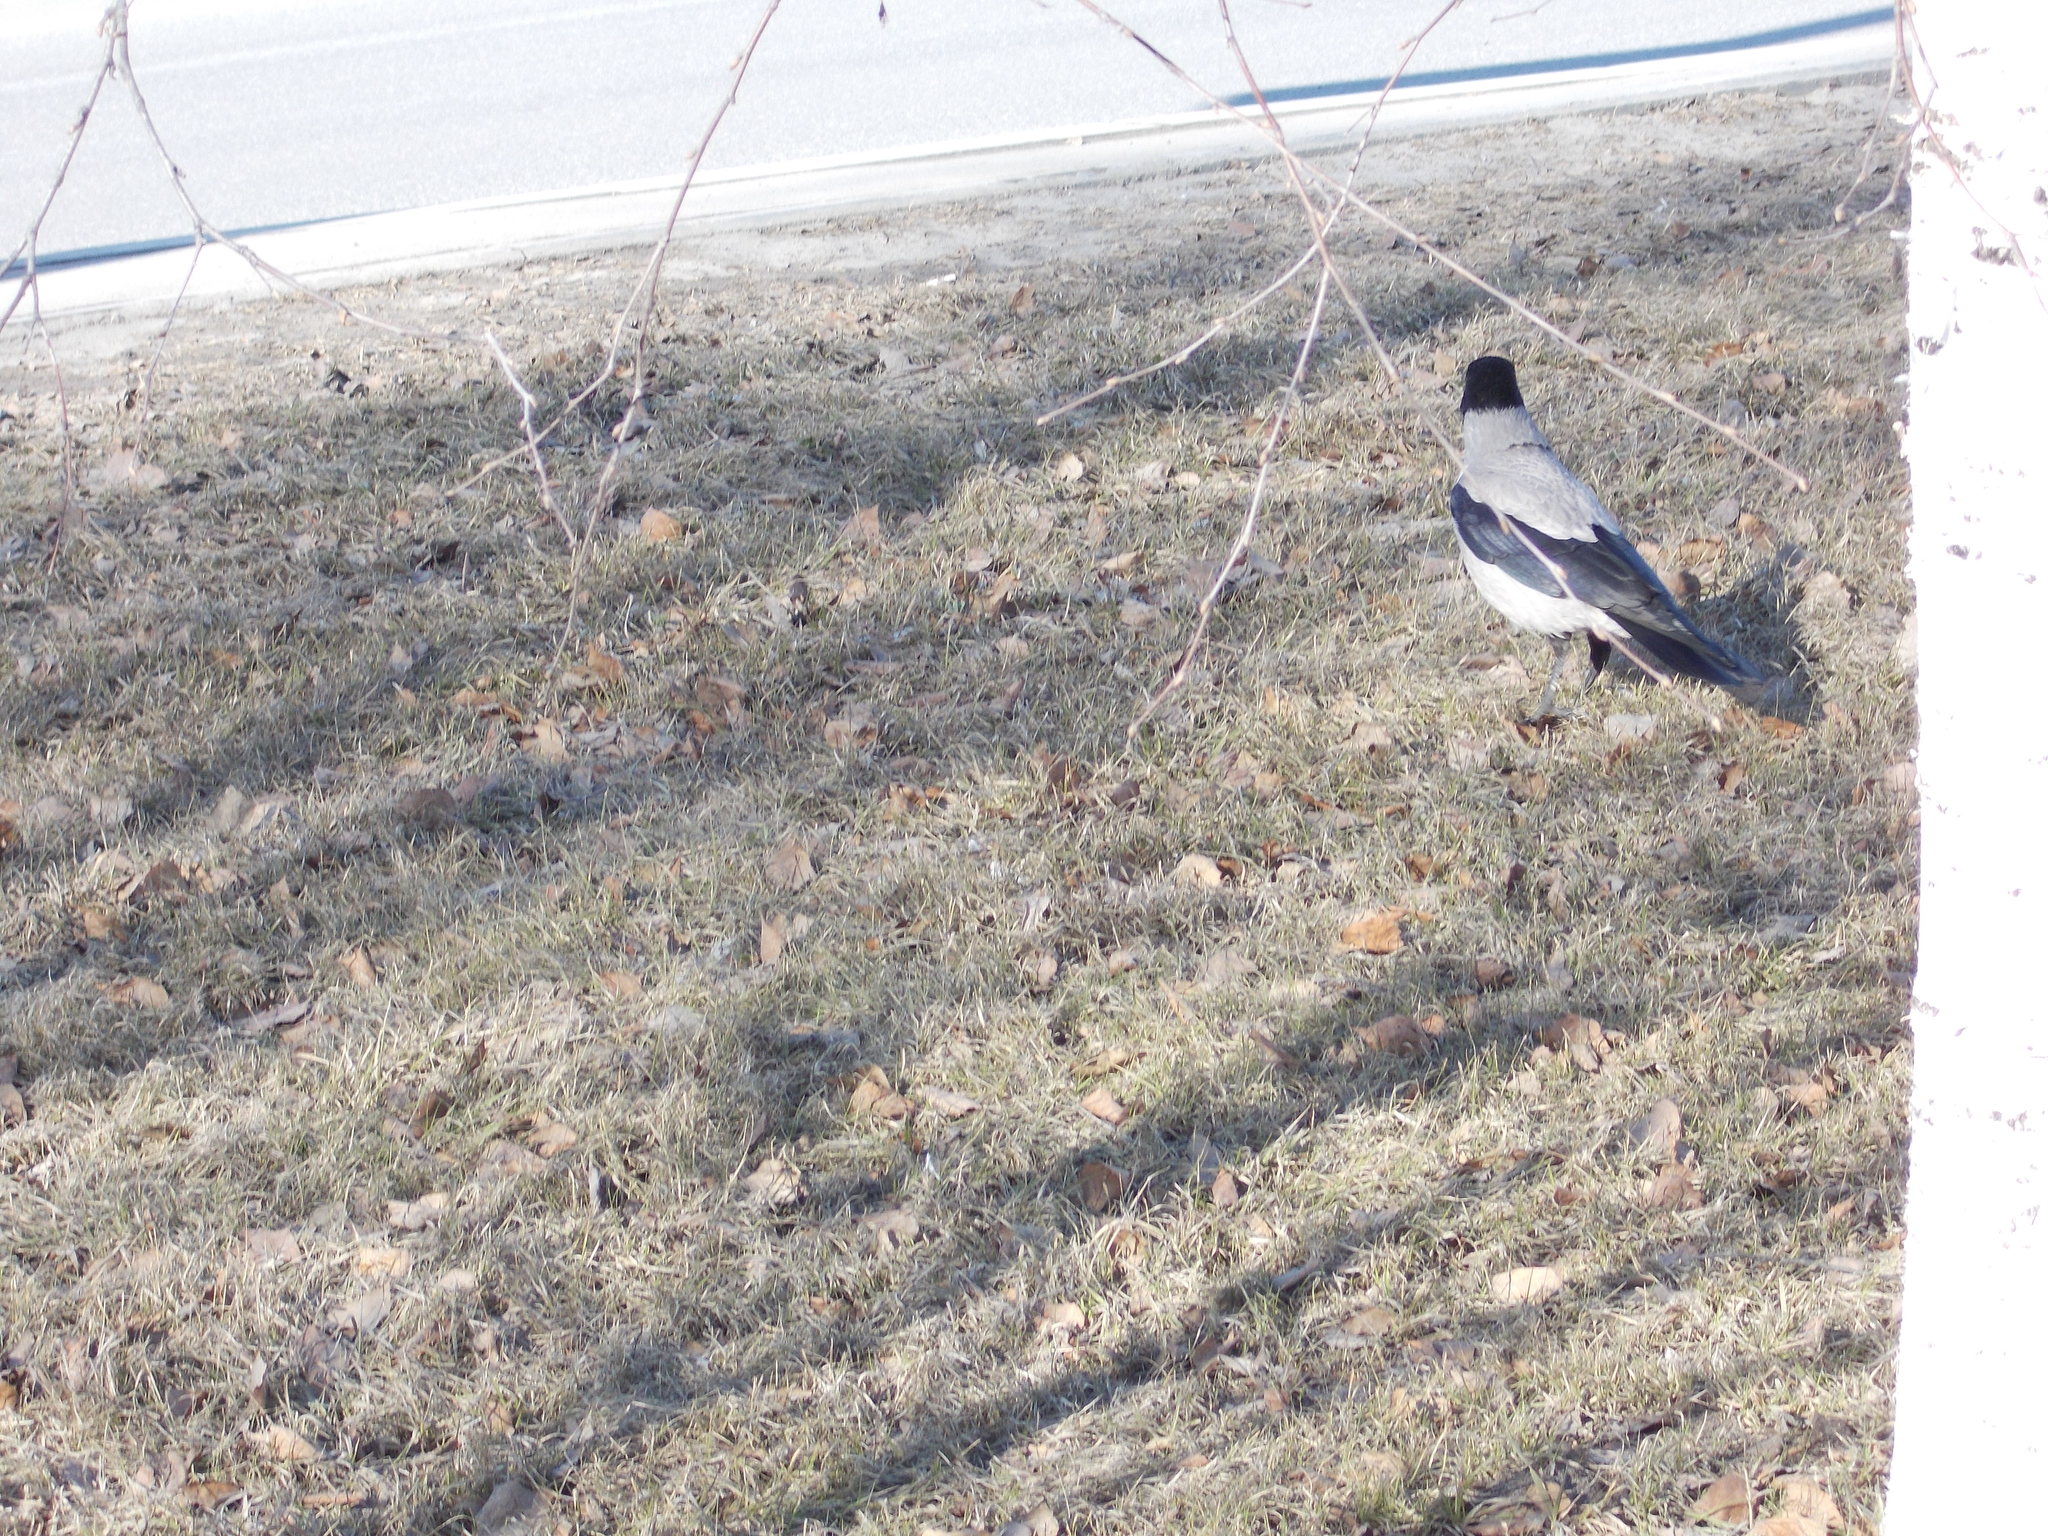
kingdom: Animalia
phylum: Chordata
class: Aves
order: Passeriformes
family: Corvidae
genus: Corvus
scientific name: Corvus cornix
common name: Hooded crow
